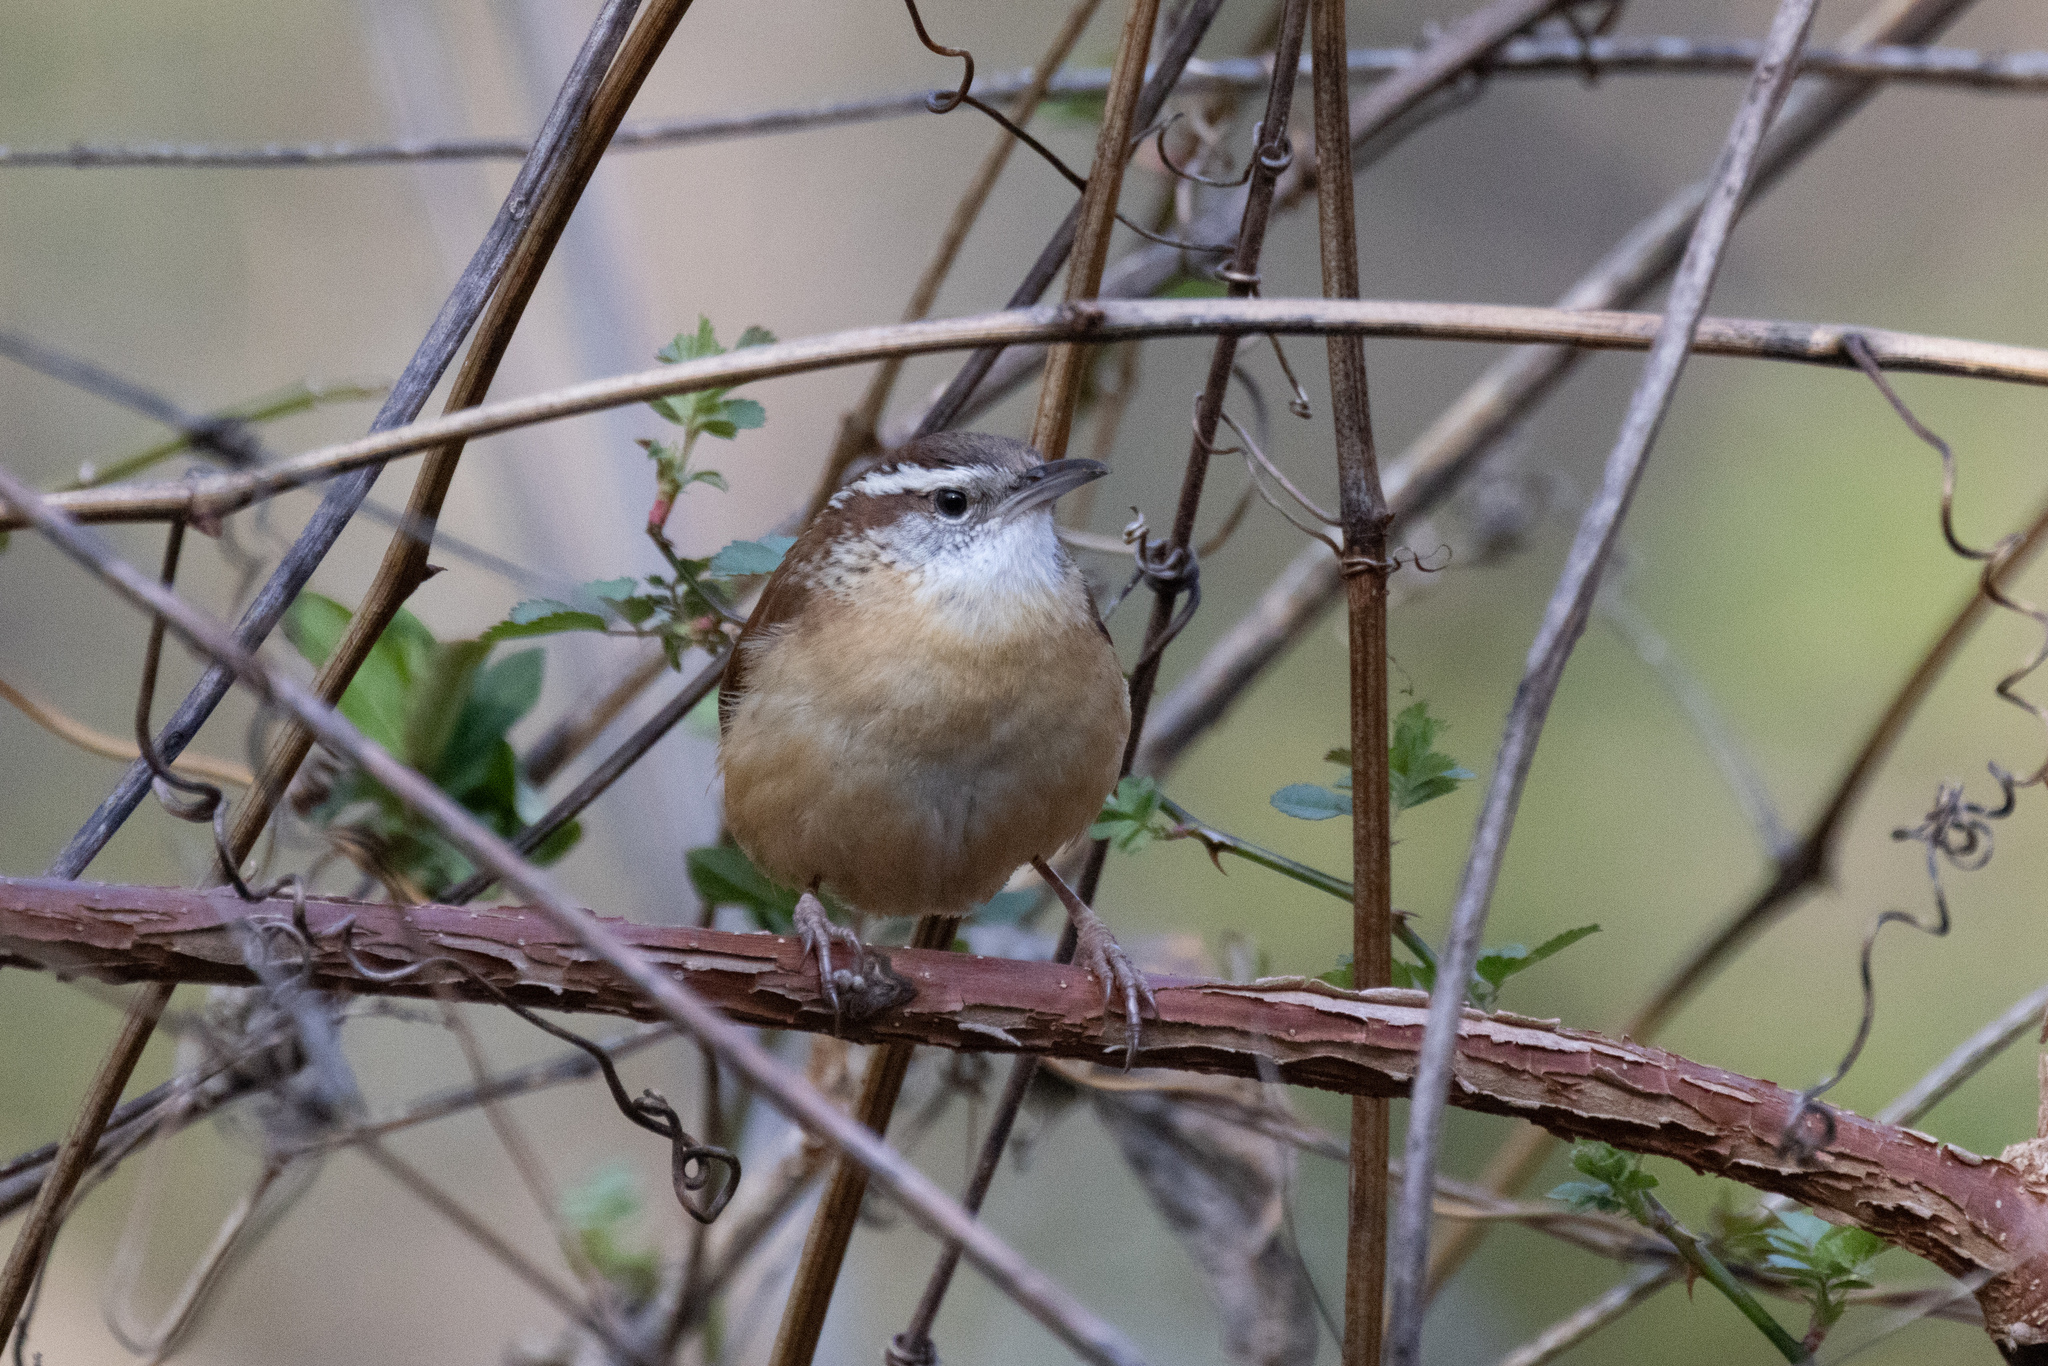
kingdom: Animalia
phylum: Chordata
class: Aves
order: Passeriformes
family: Troglodytidae
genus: Thryothorus
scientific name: Thryothorus ludovicianus
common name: Carolina wren
